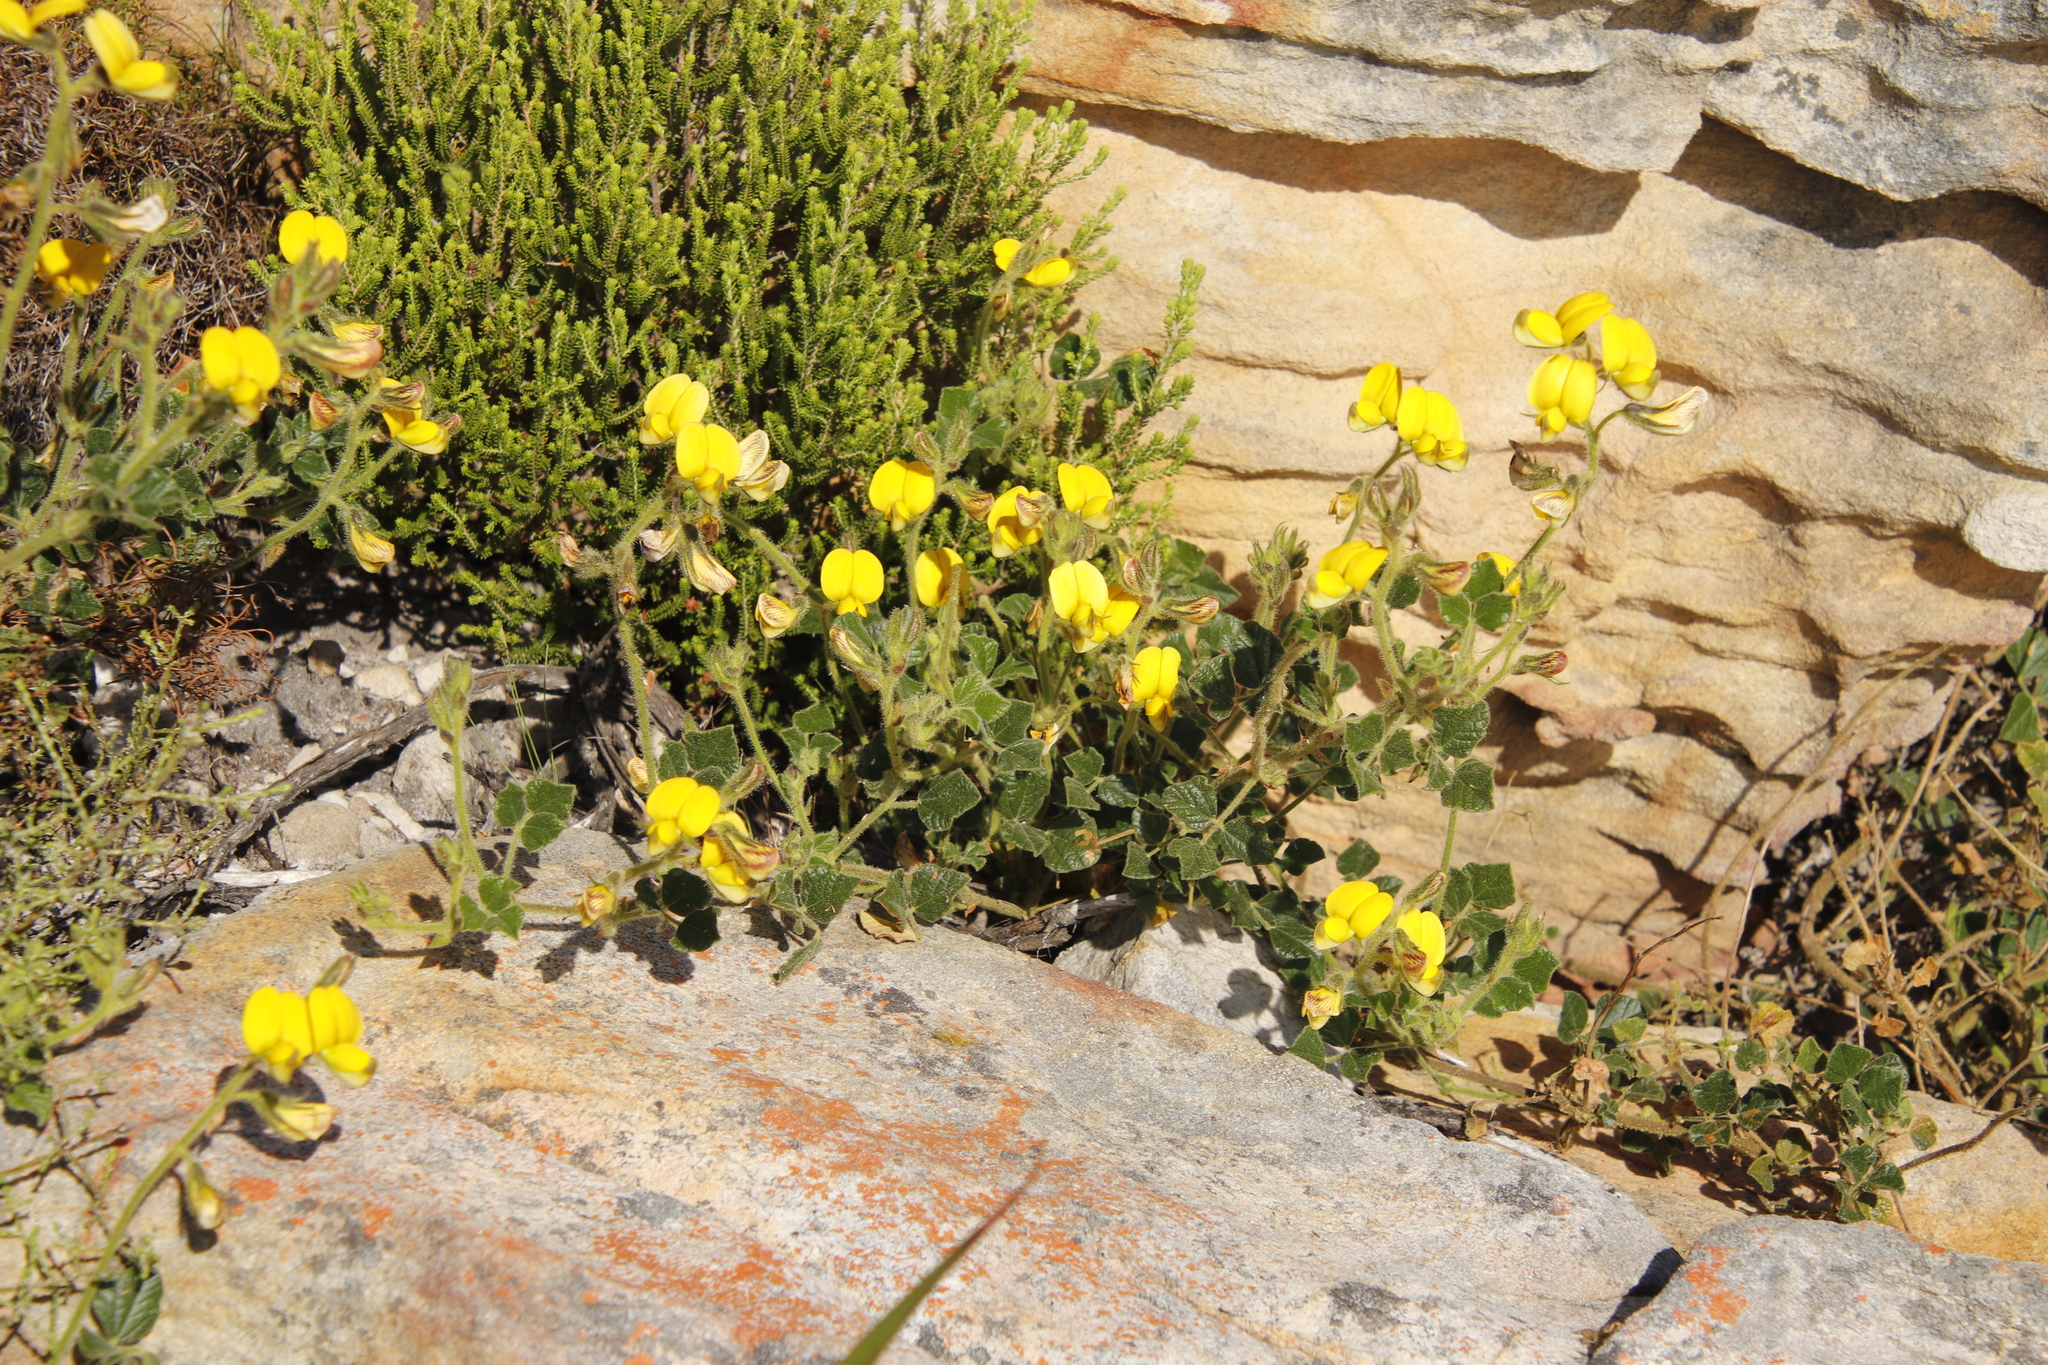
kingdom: Plantae
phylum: Tracheophyta
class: Magnoliopsida
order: Fabales
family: Fabaceae
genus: Bolusafra
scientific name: Bolusafra bituminosa
